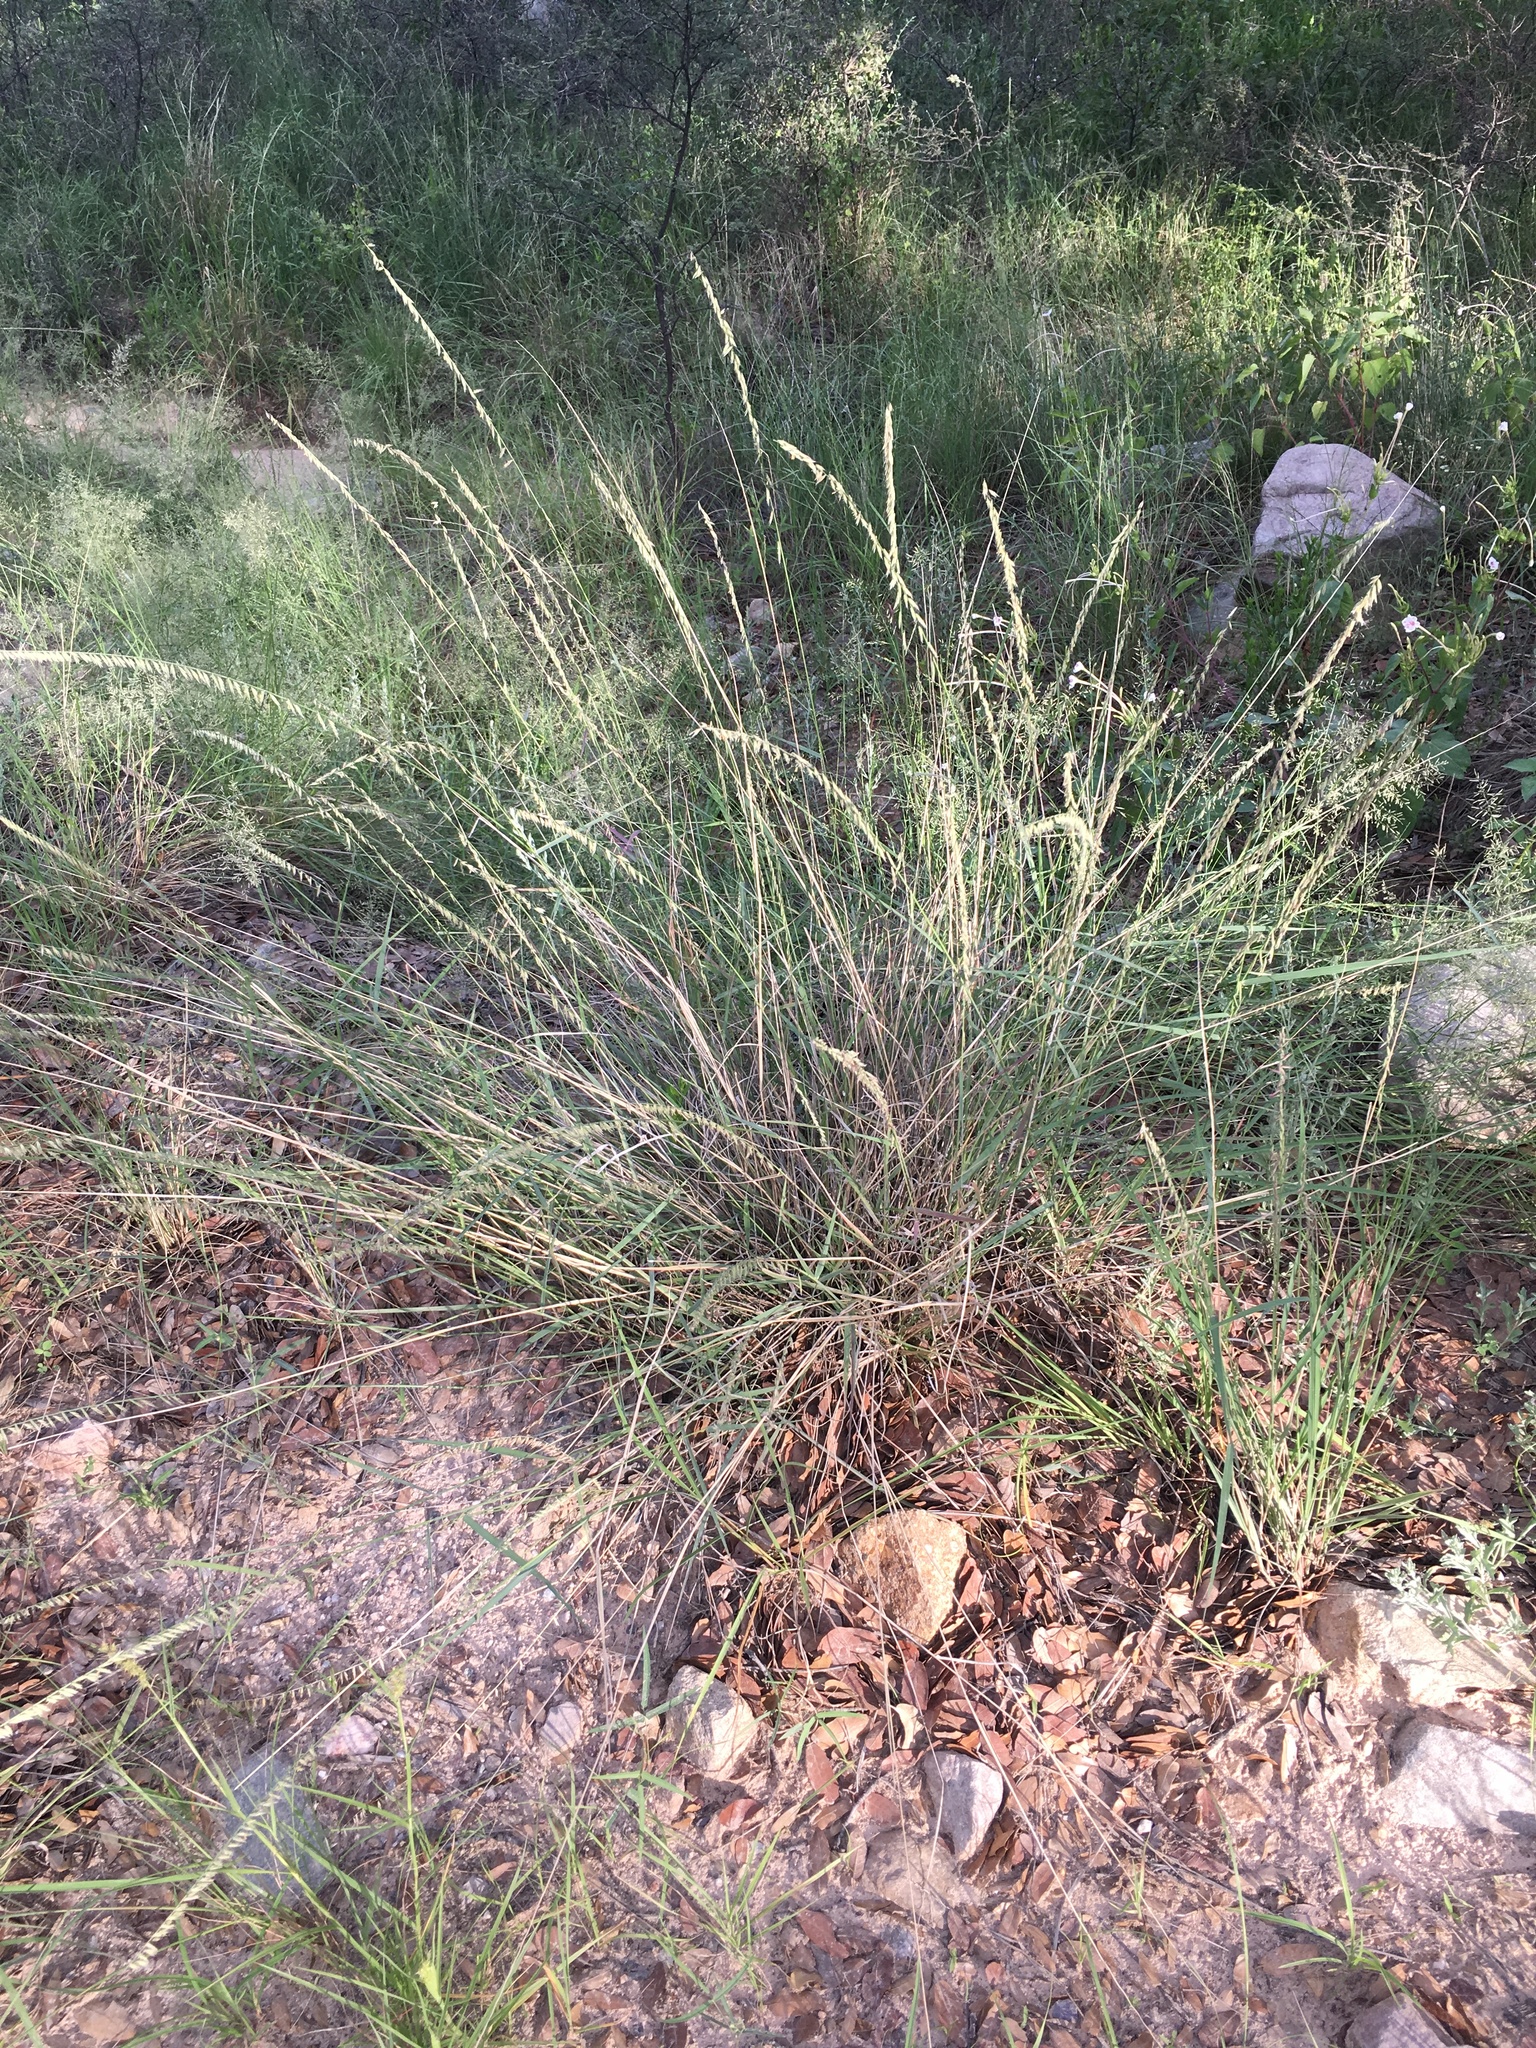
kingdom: Plantae
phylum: Tracheophyta
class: Liliopsida
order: Poales
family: Poaceae
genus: Bouteloua
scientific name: Bouteloua curtipendula
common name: Side-oats grama
